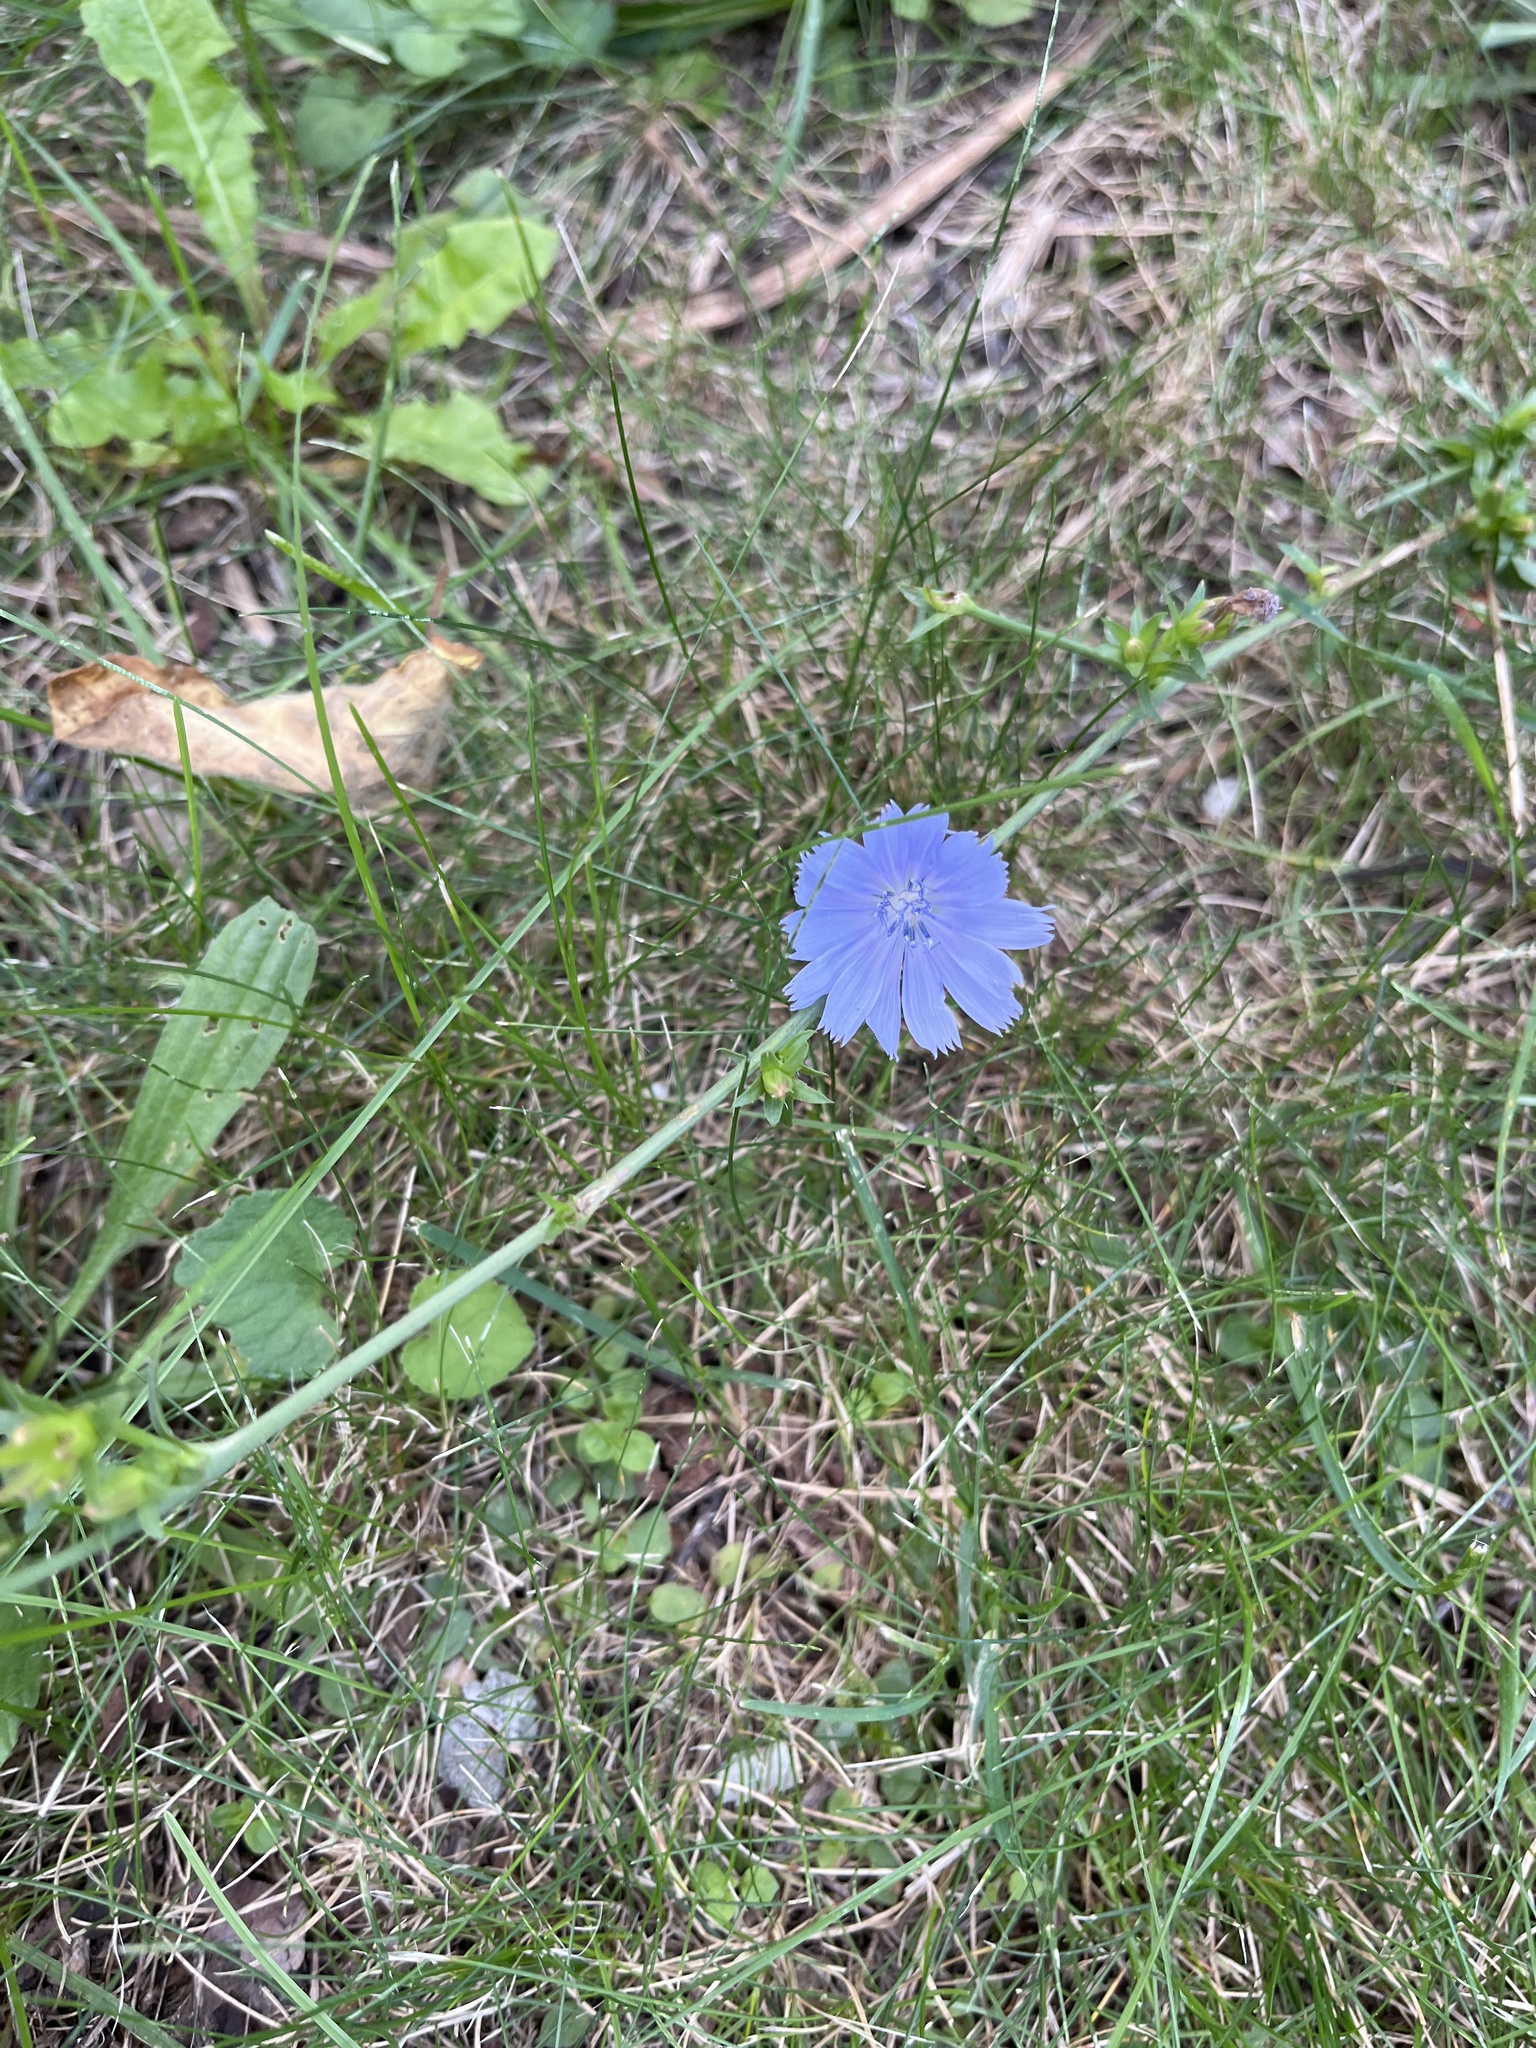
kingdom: Plantae
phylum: Tracheophyta
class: Magnoliopsida
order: Asterales
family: Asteraceae
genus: Cichorium
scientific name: Cichorium intybus
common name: Chicory
